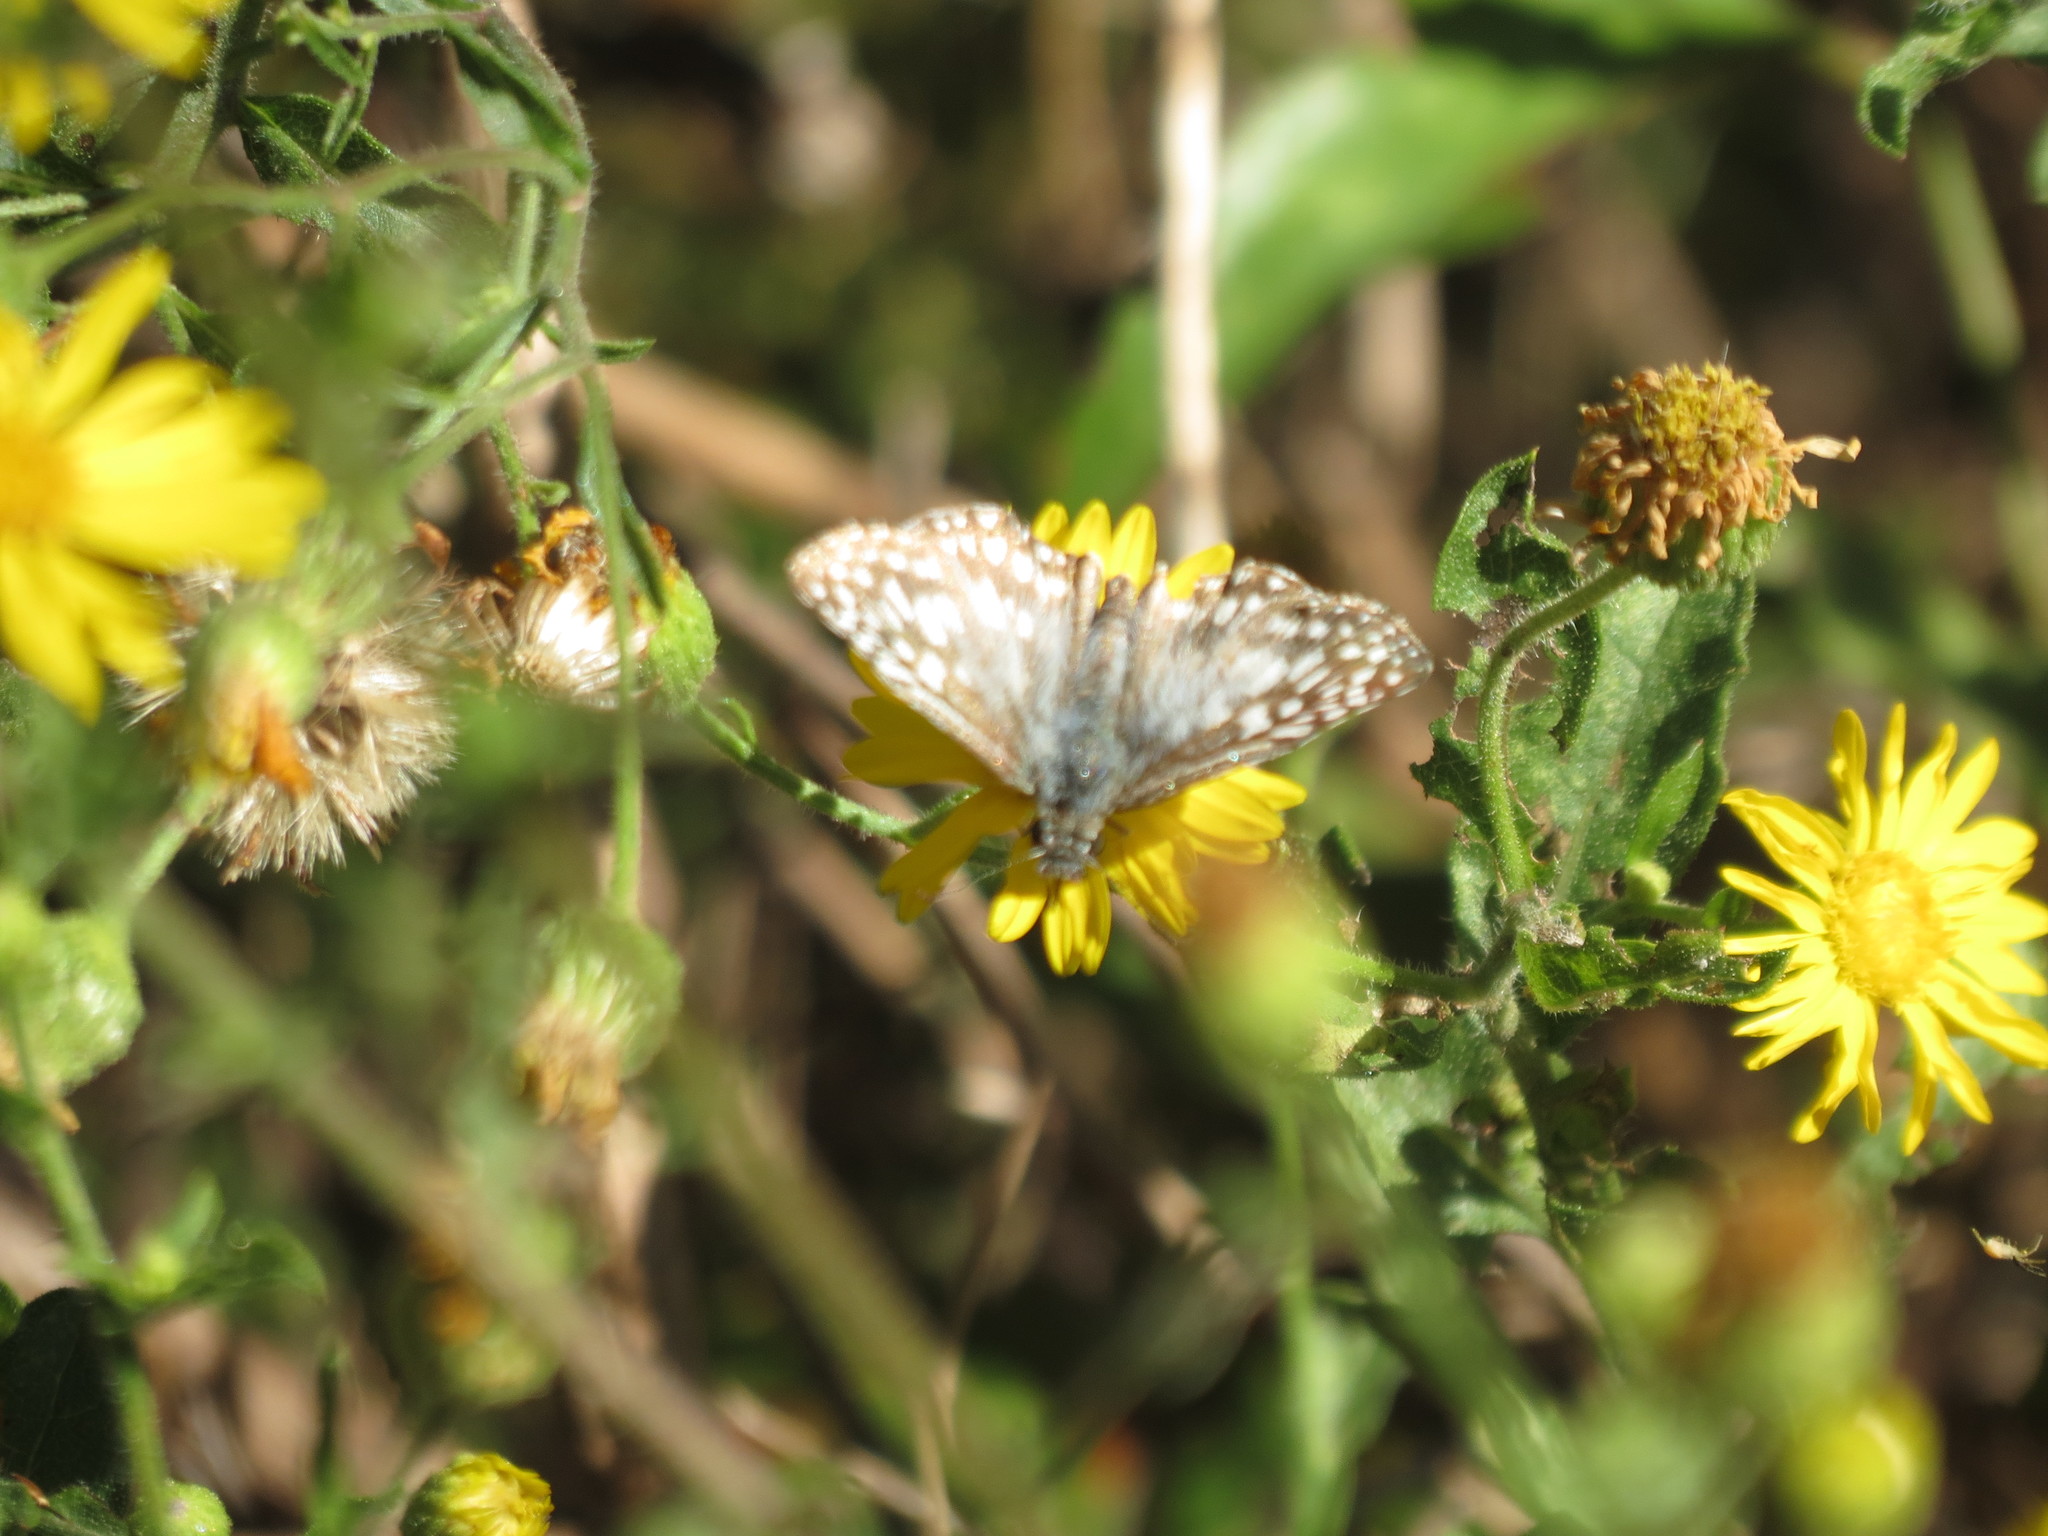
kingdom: Animalia
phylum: Arthropoda
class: Insecta
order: Lepidoptera
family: Hesperiidae
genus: Pyrgus
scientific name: Pyrgus oileus
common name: Tropical checkered-skipper
